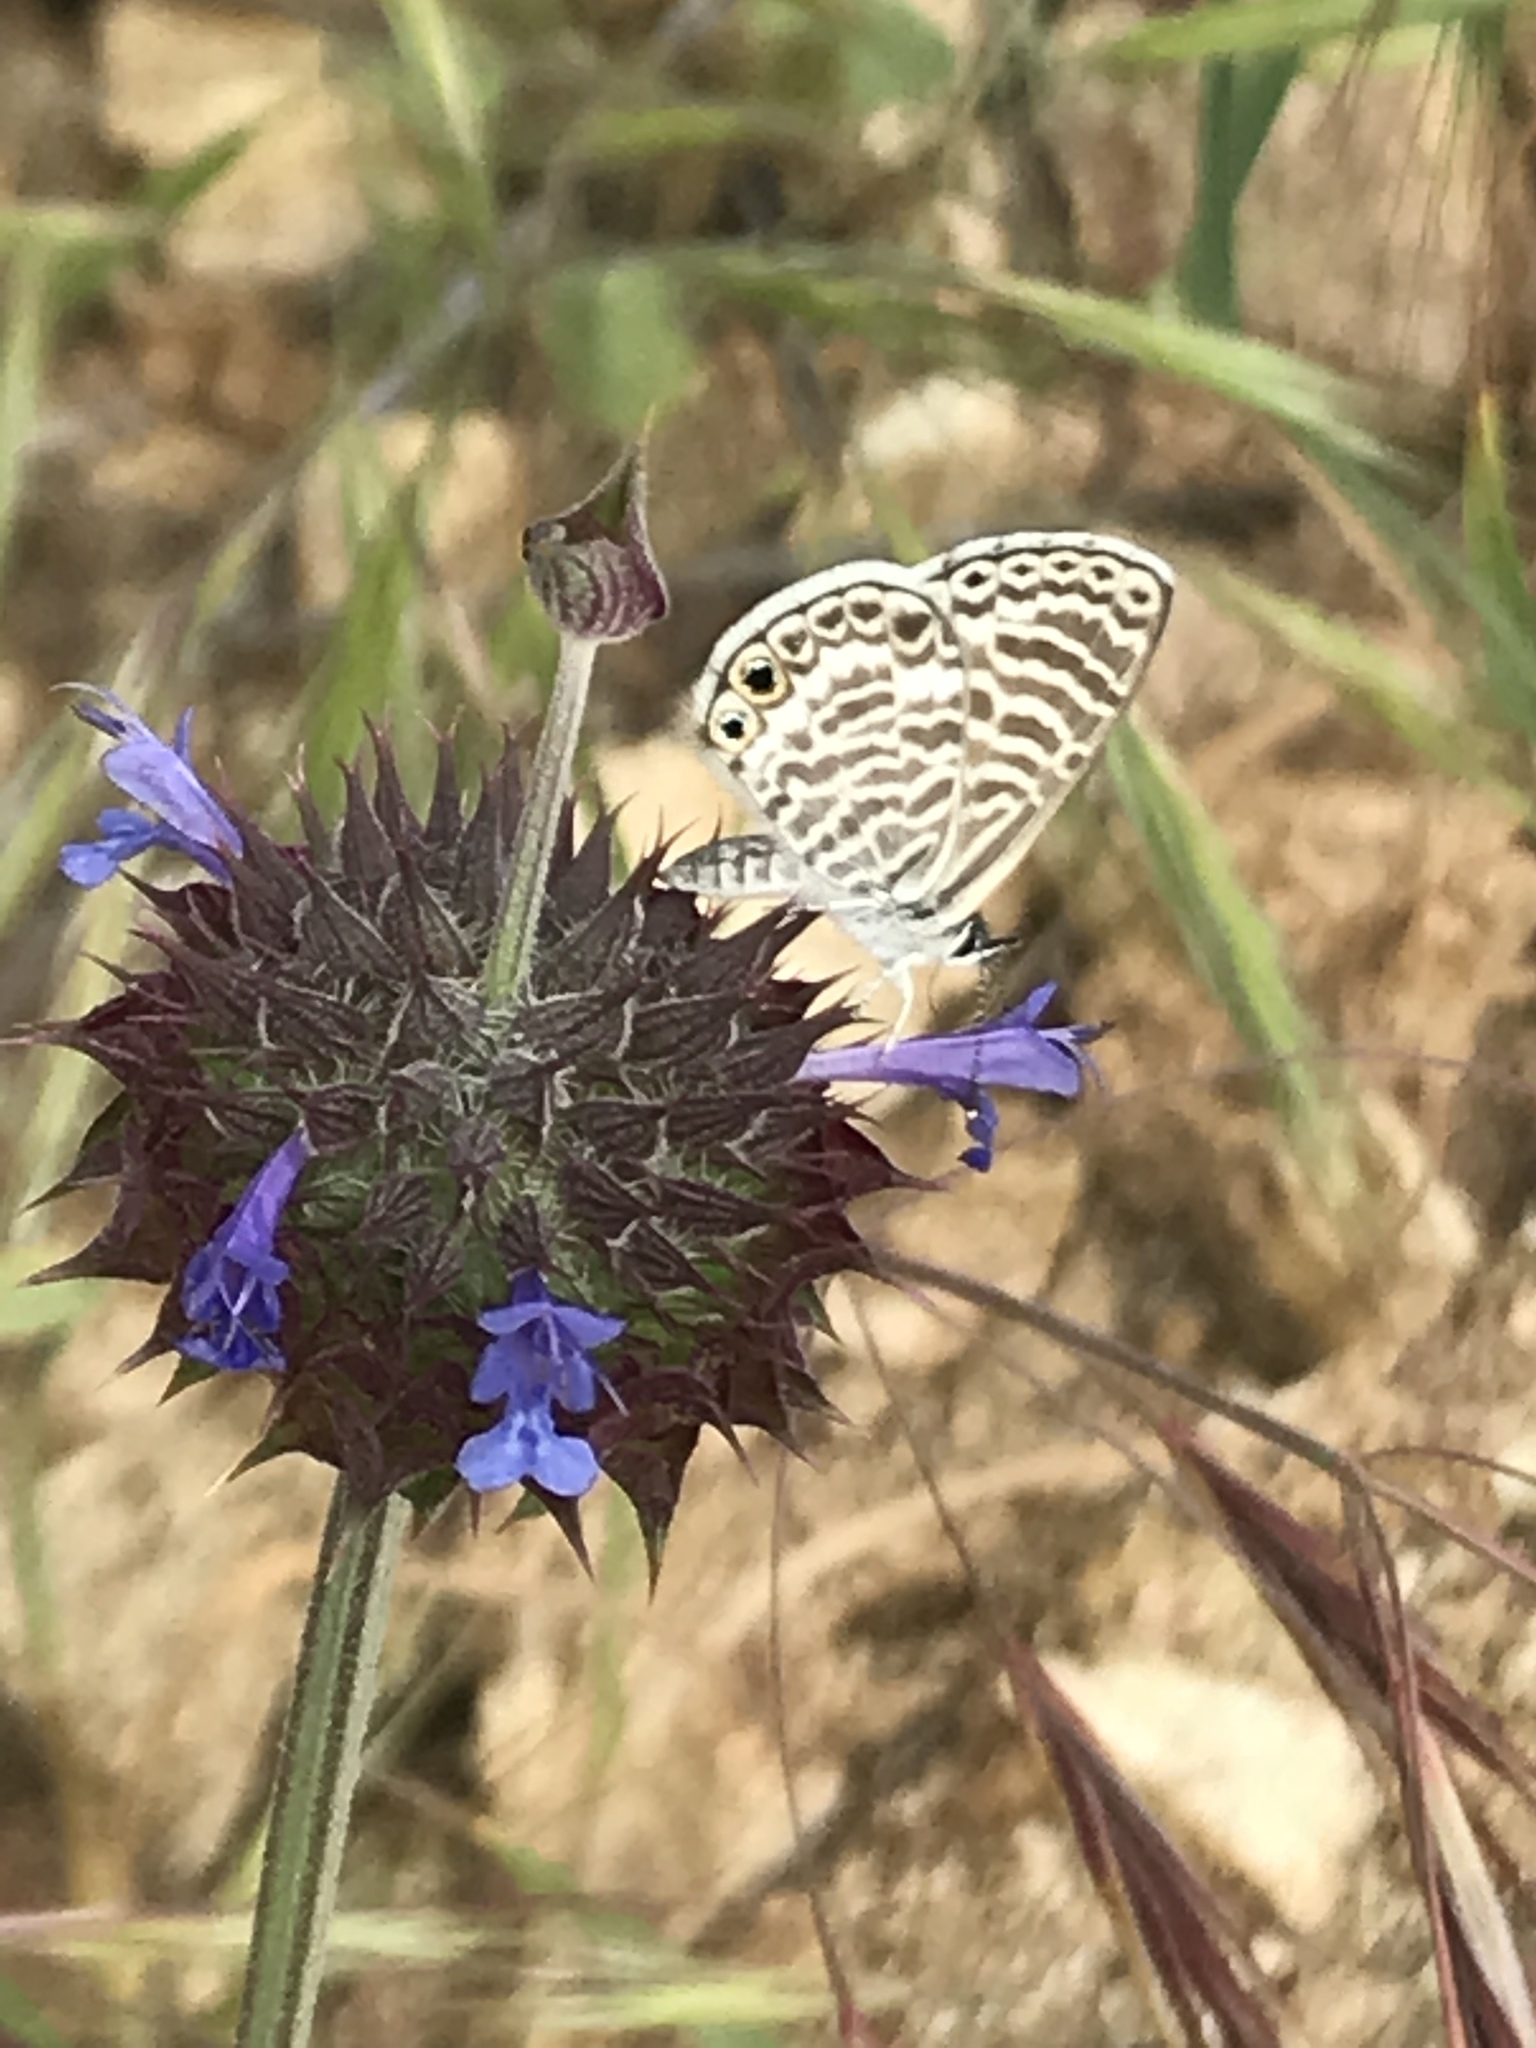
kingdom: Animalia
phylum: Arthropoda
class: Insecta
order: Lepidoptera
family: Lycaenidae
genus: Leptotes
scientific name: Leptotes marina
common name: Marine blue
